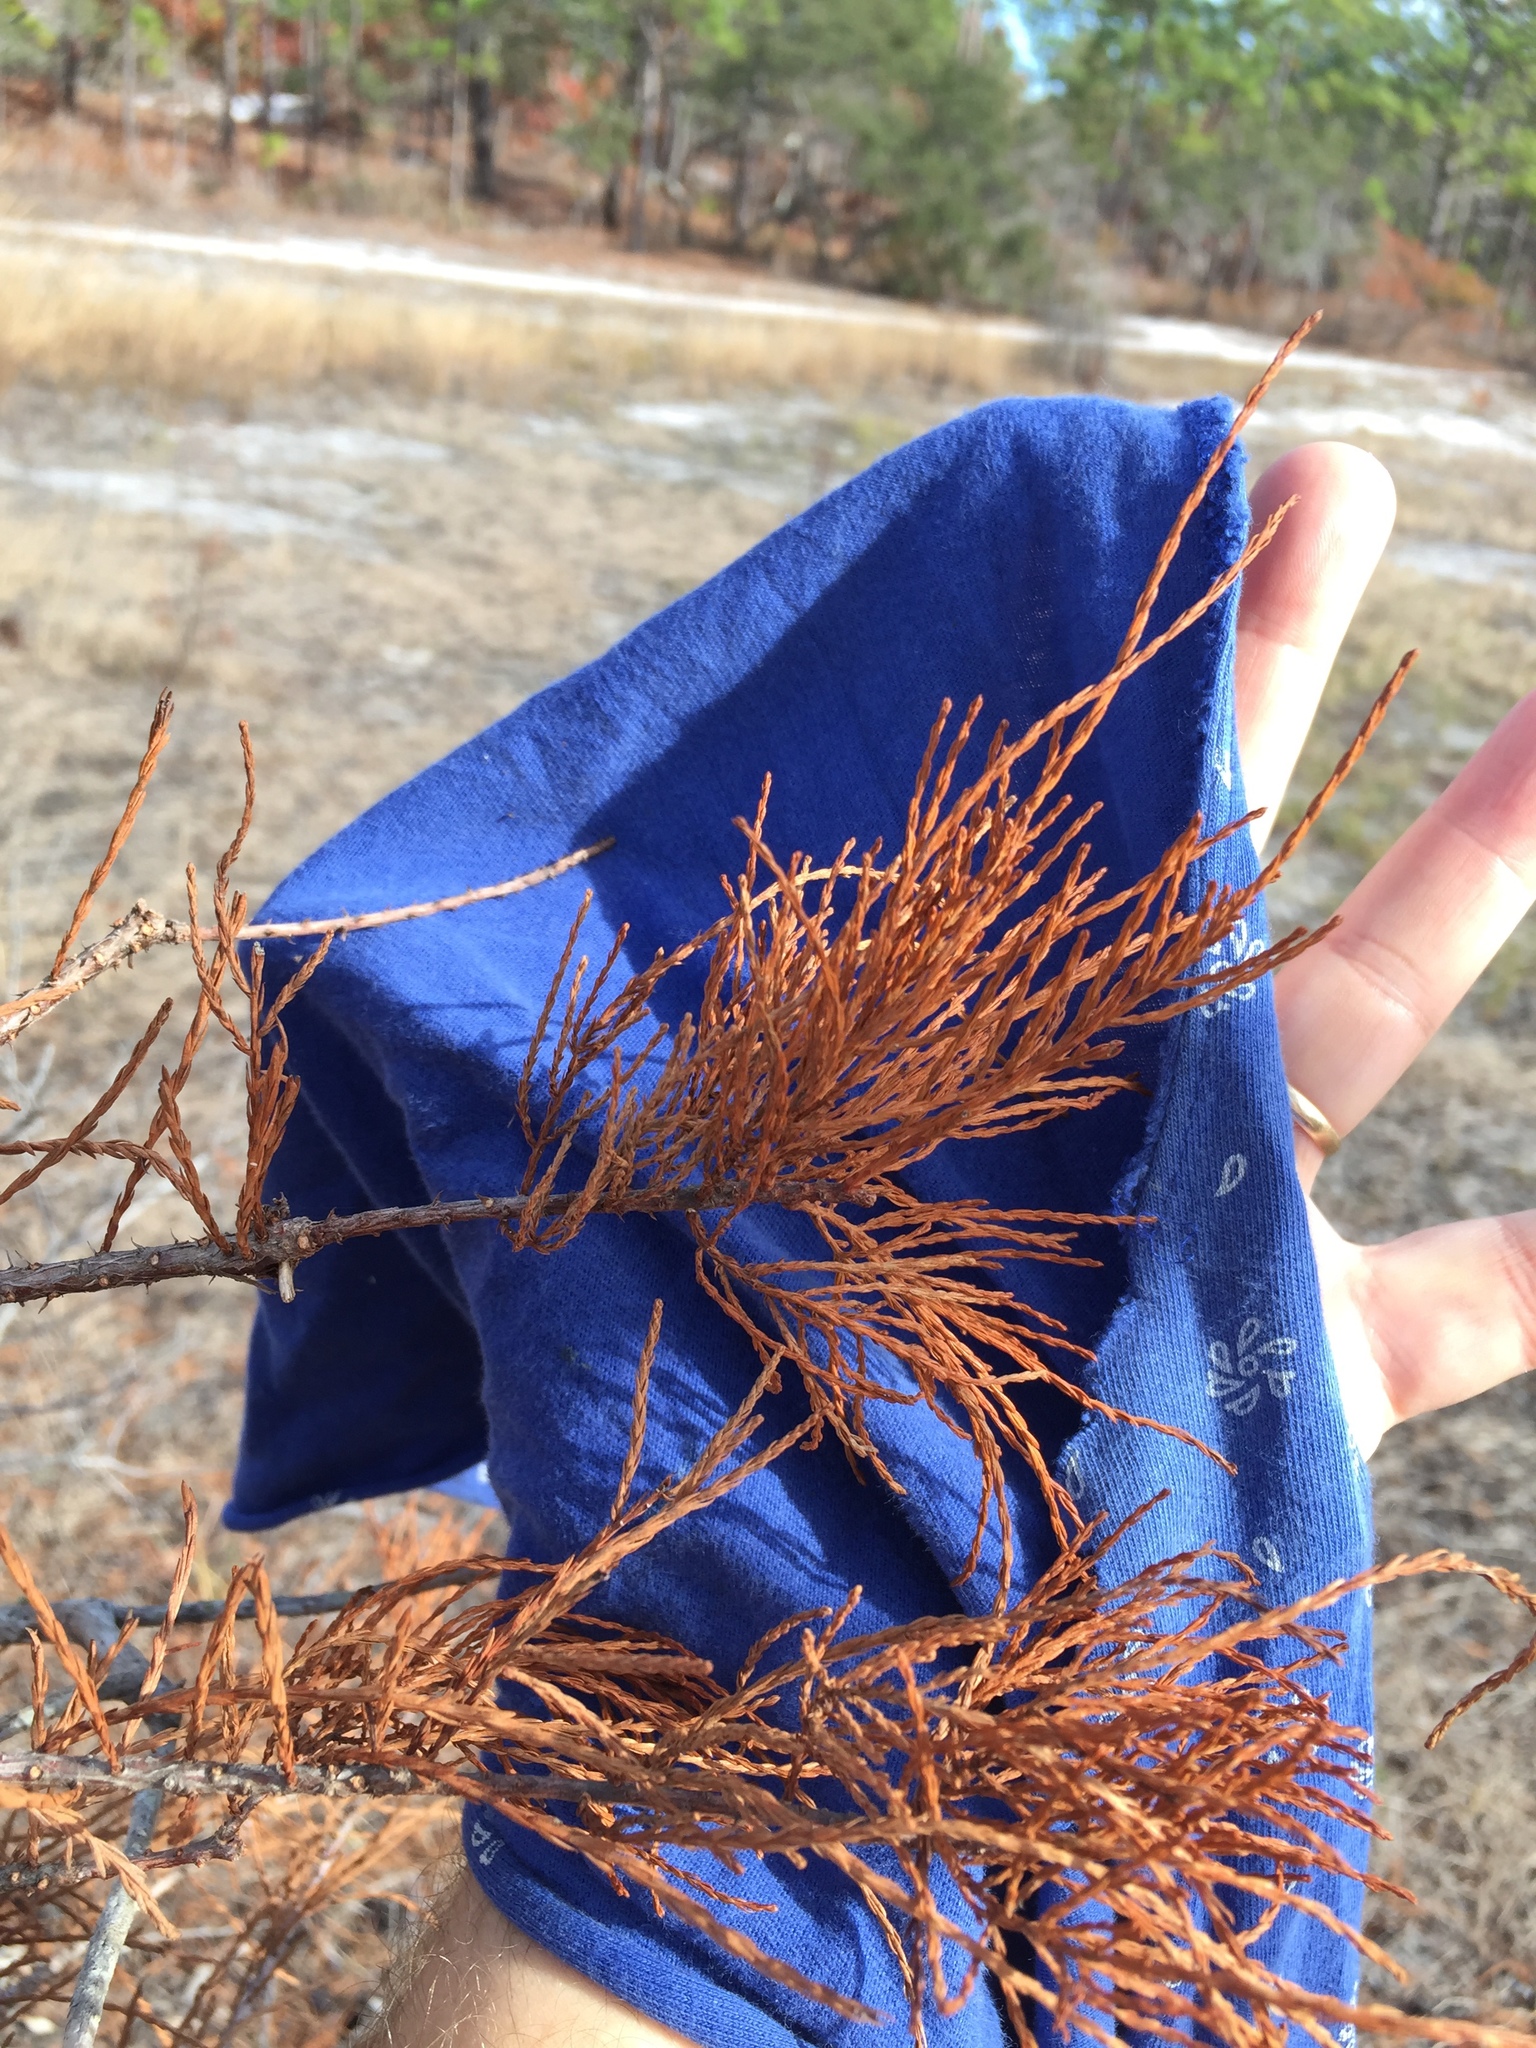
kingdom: Plantae
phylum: Tracheophyta
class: Pinopsida
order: Pinales
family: Cupressaceae
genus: Taxodium
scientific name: Taxodium distichum
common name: Bald cypress
